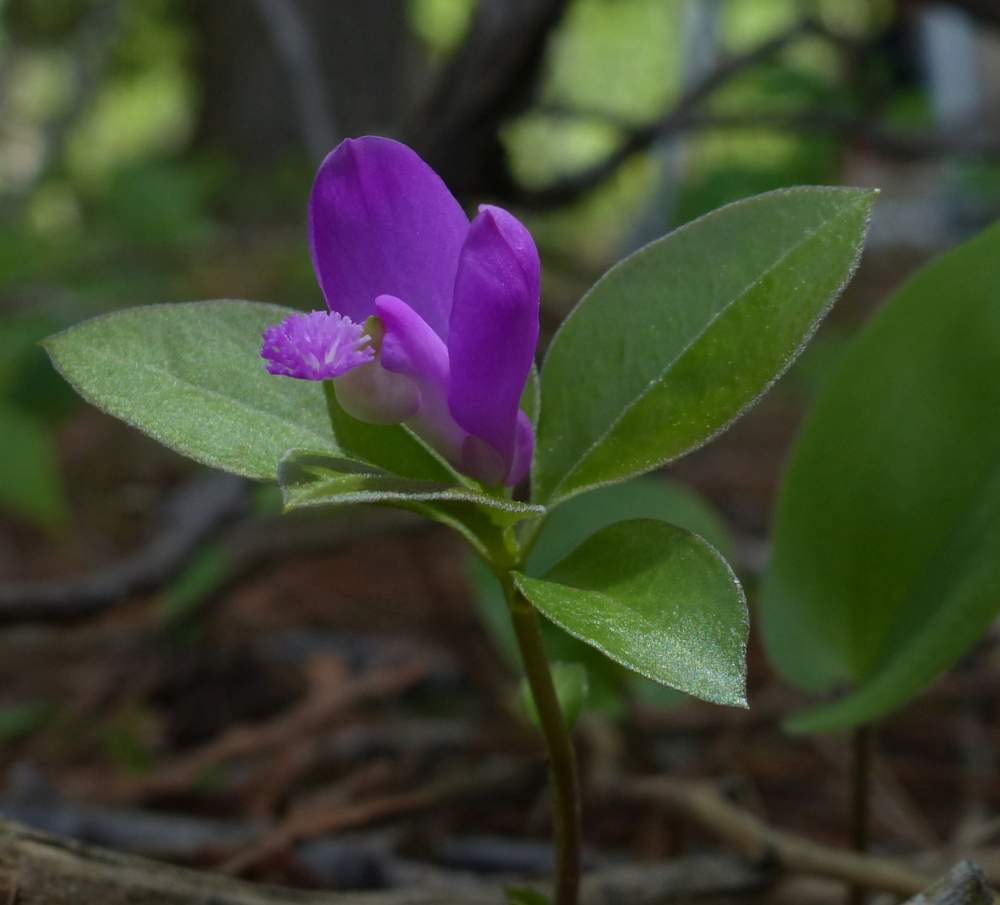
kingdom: Plantae
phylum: Tracheophyta
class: Magnoliopsida
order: Fabales
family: Polygalaceae
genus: Polygaloides
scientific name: Polygaloides paucifolia
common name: Bird-on-the-wing
